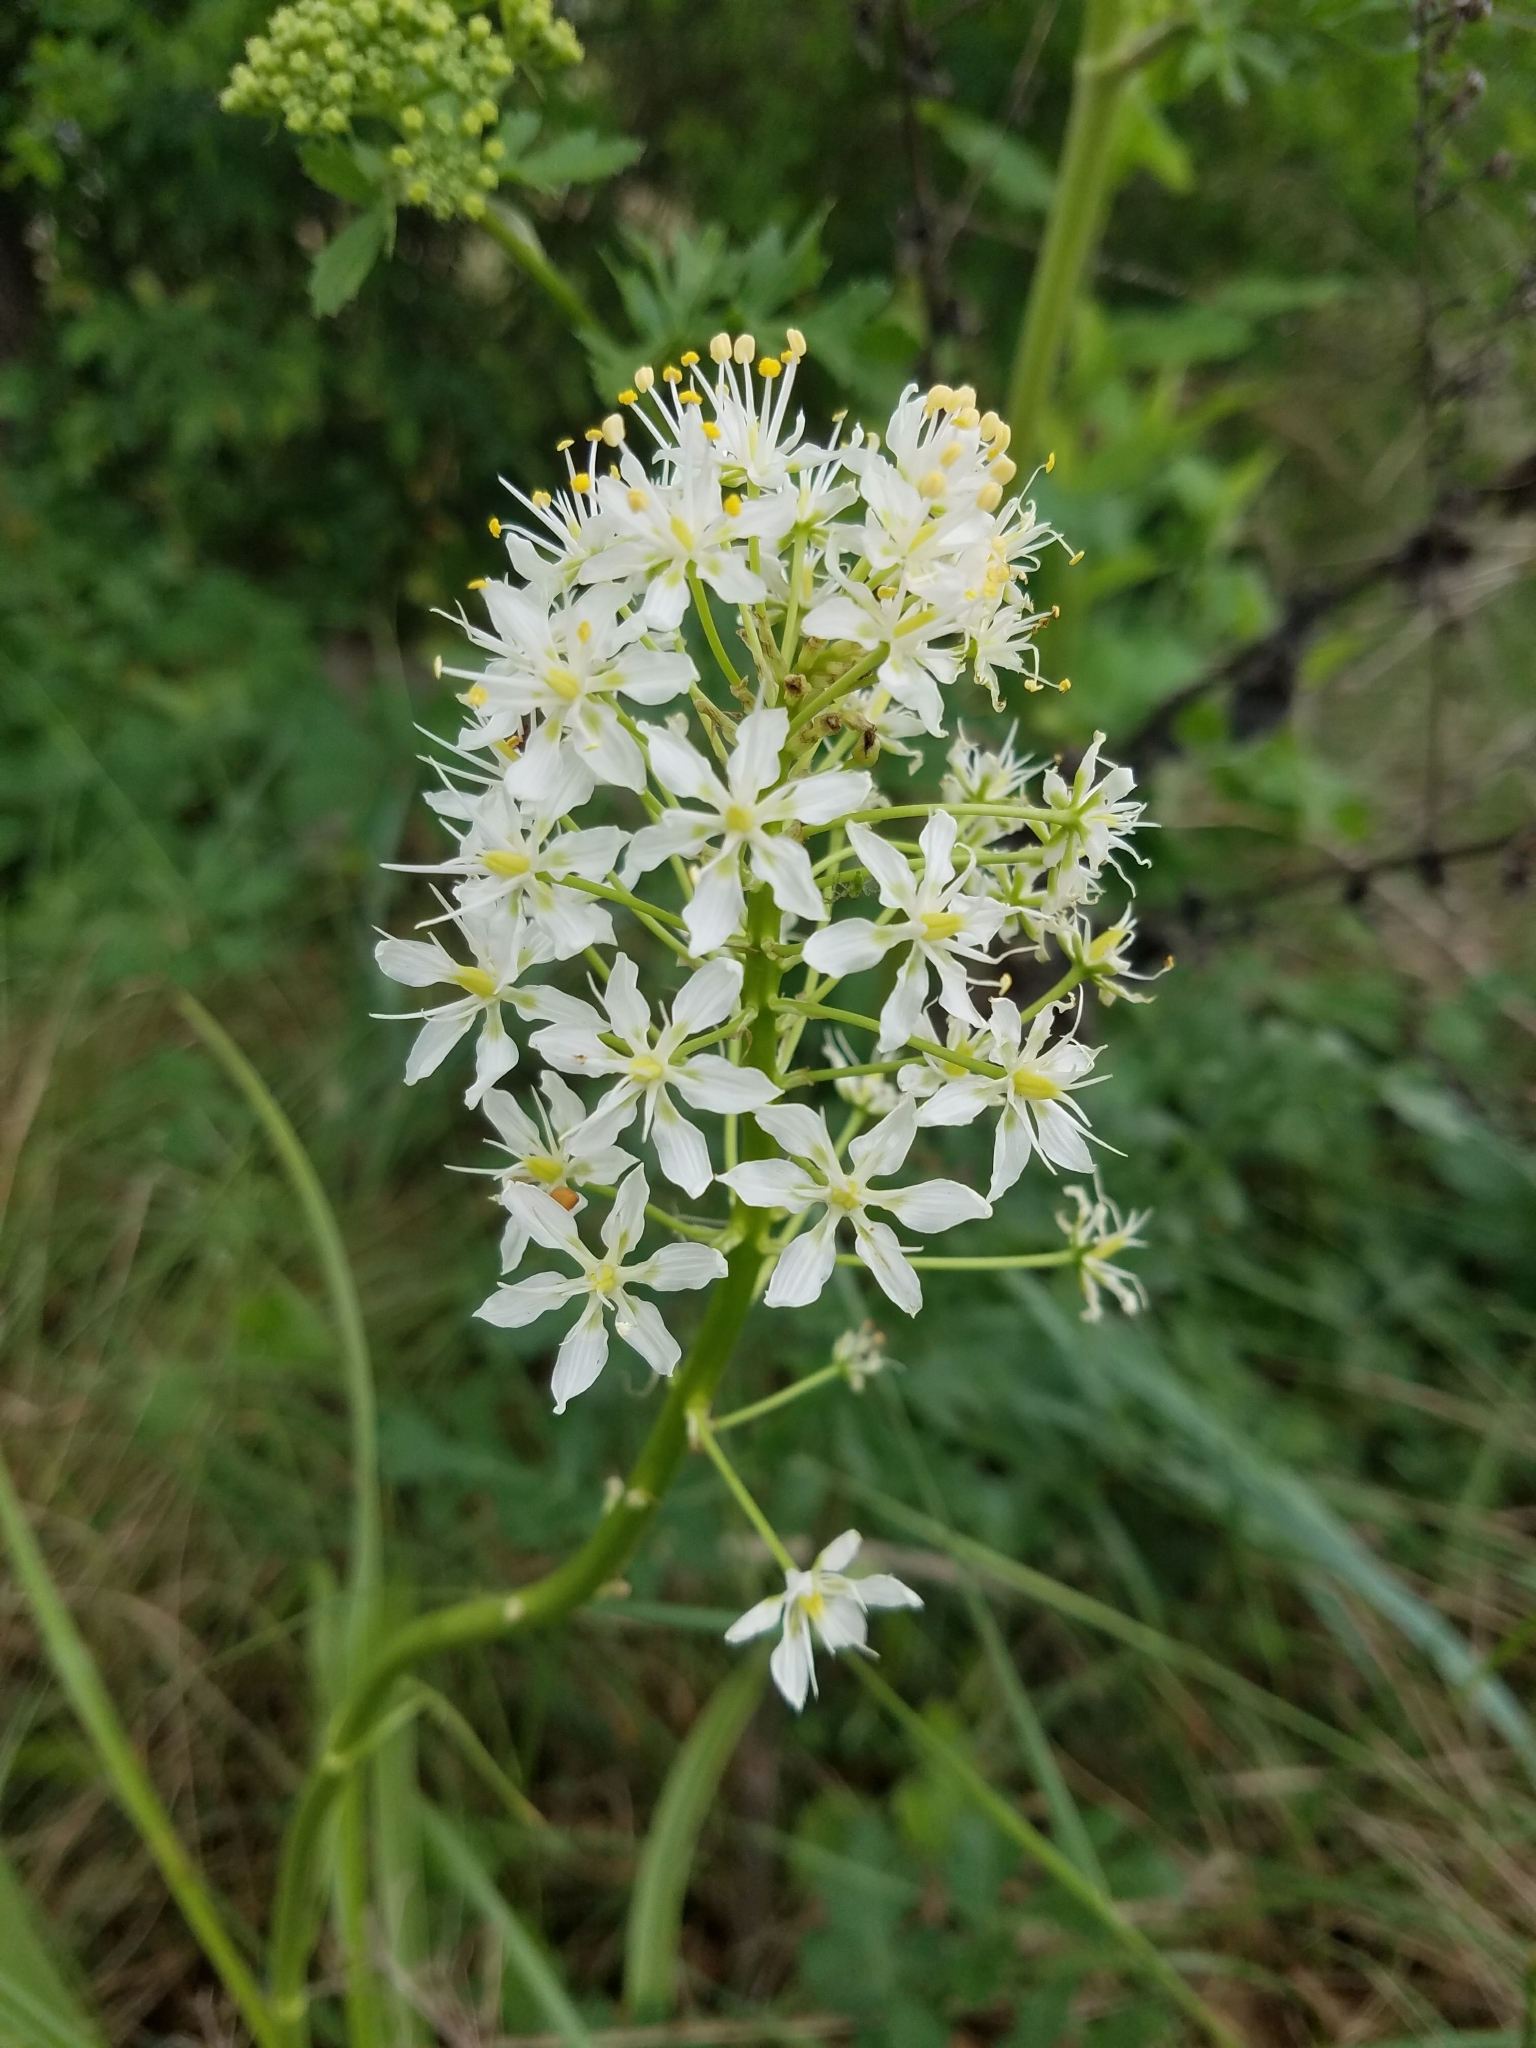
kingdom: Plantae
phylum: Tracheophyta
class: Liliopsida
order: Liliales
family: Melanthiaceae
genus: Toxicoscordion
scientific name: Toxicoscordion nuttallii
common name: Poison sego
